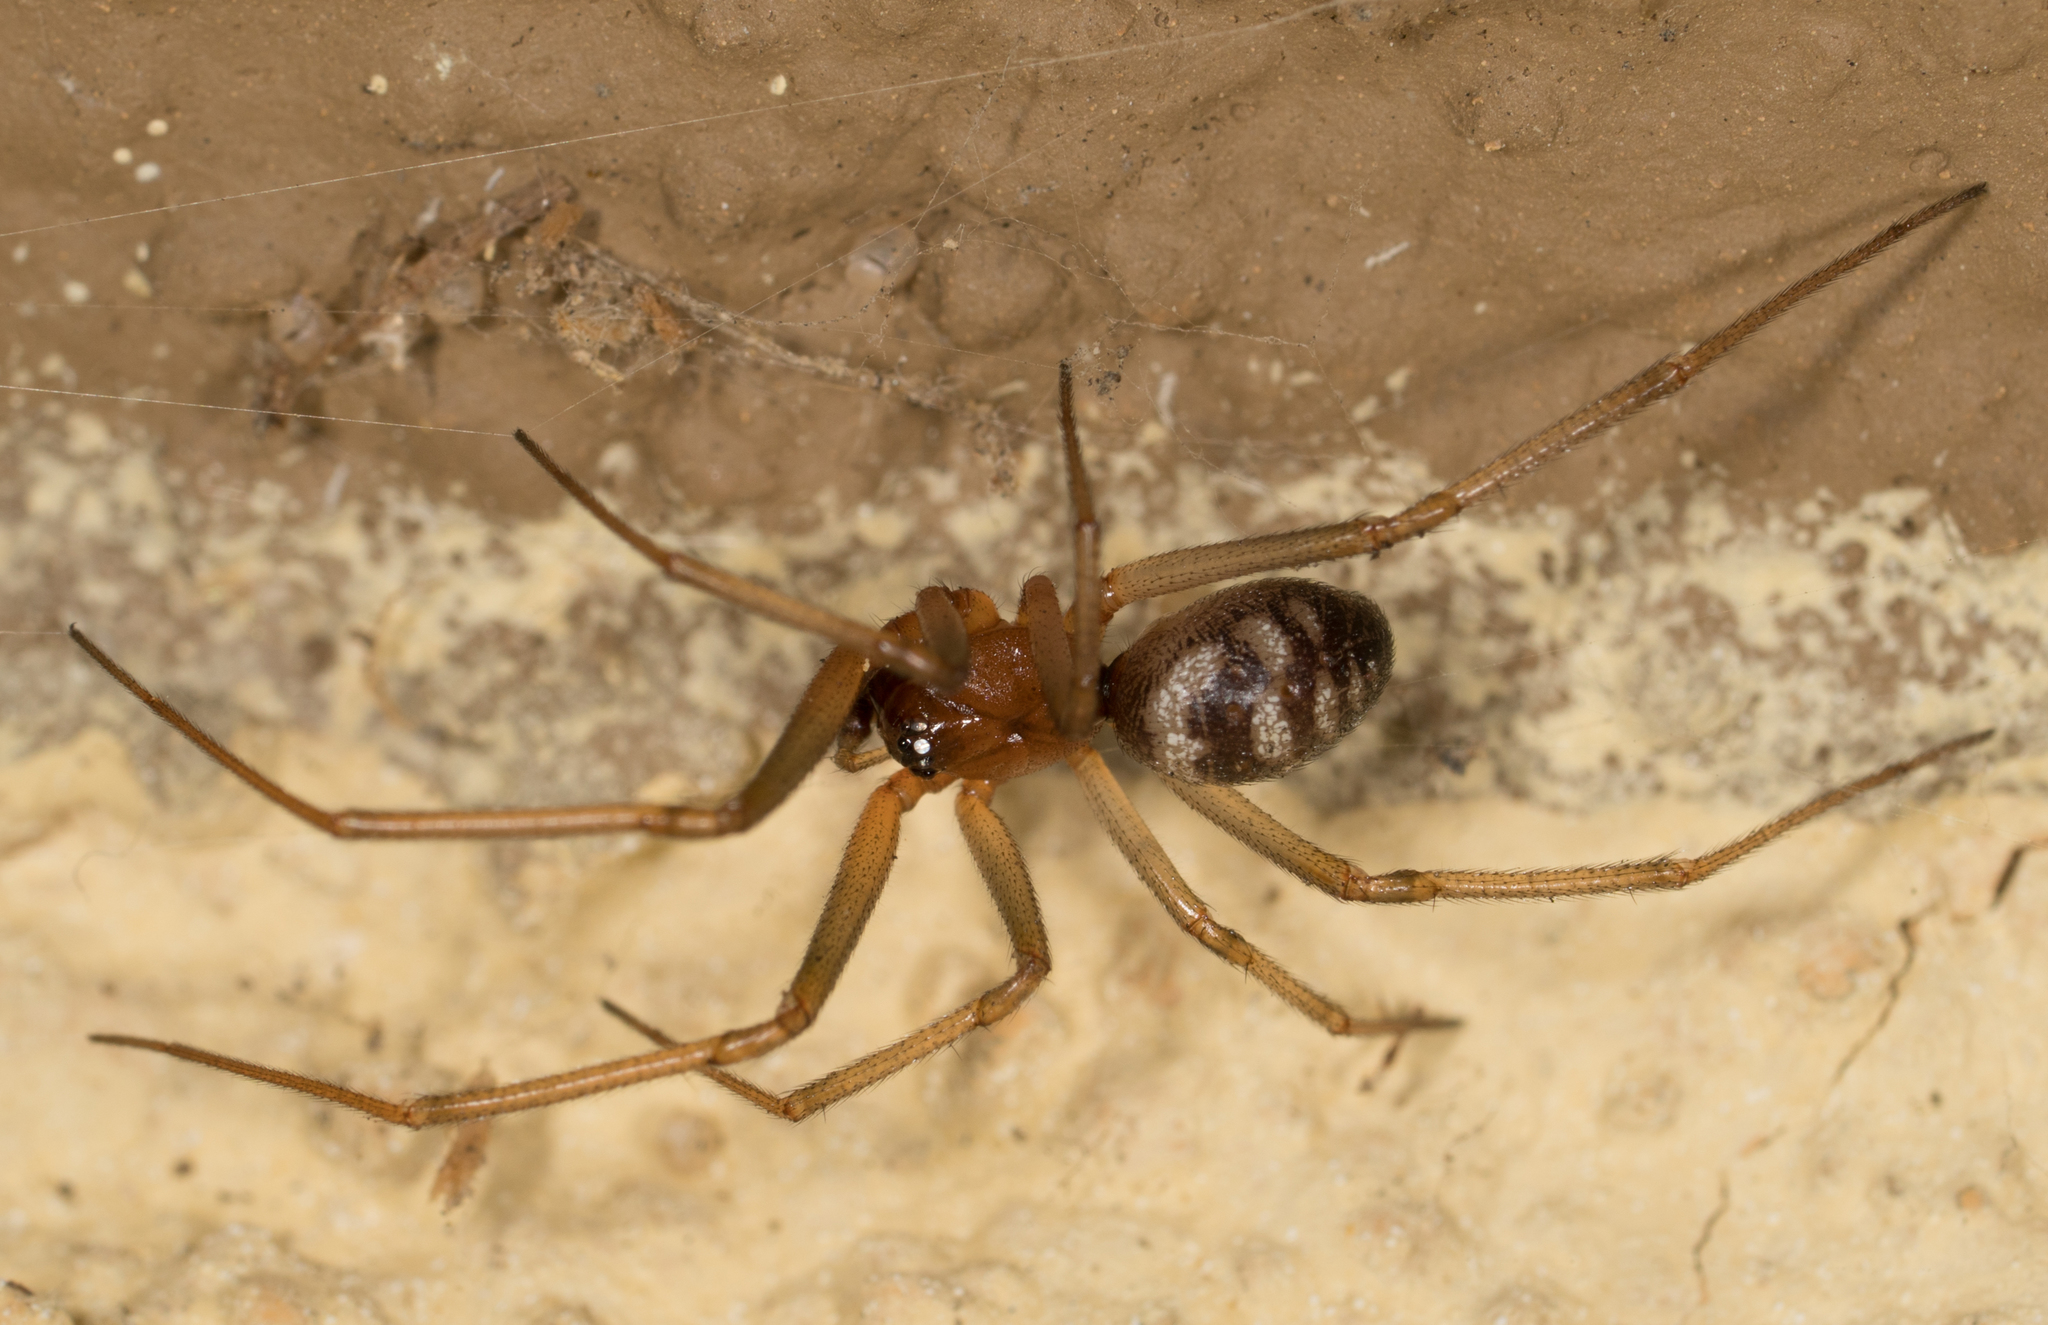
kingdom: Animalia
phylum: Arthropoda
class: Arachnida
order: Araneae
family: Theridiidae
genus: Steatoda
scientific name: Steatoda grossa
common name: False black widow
